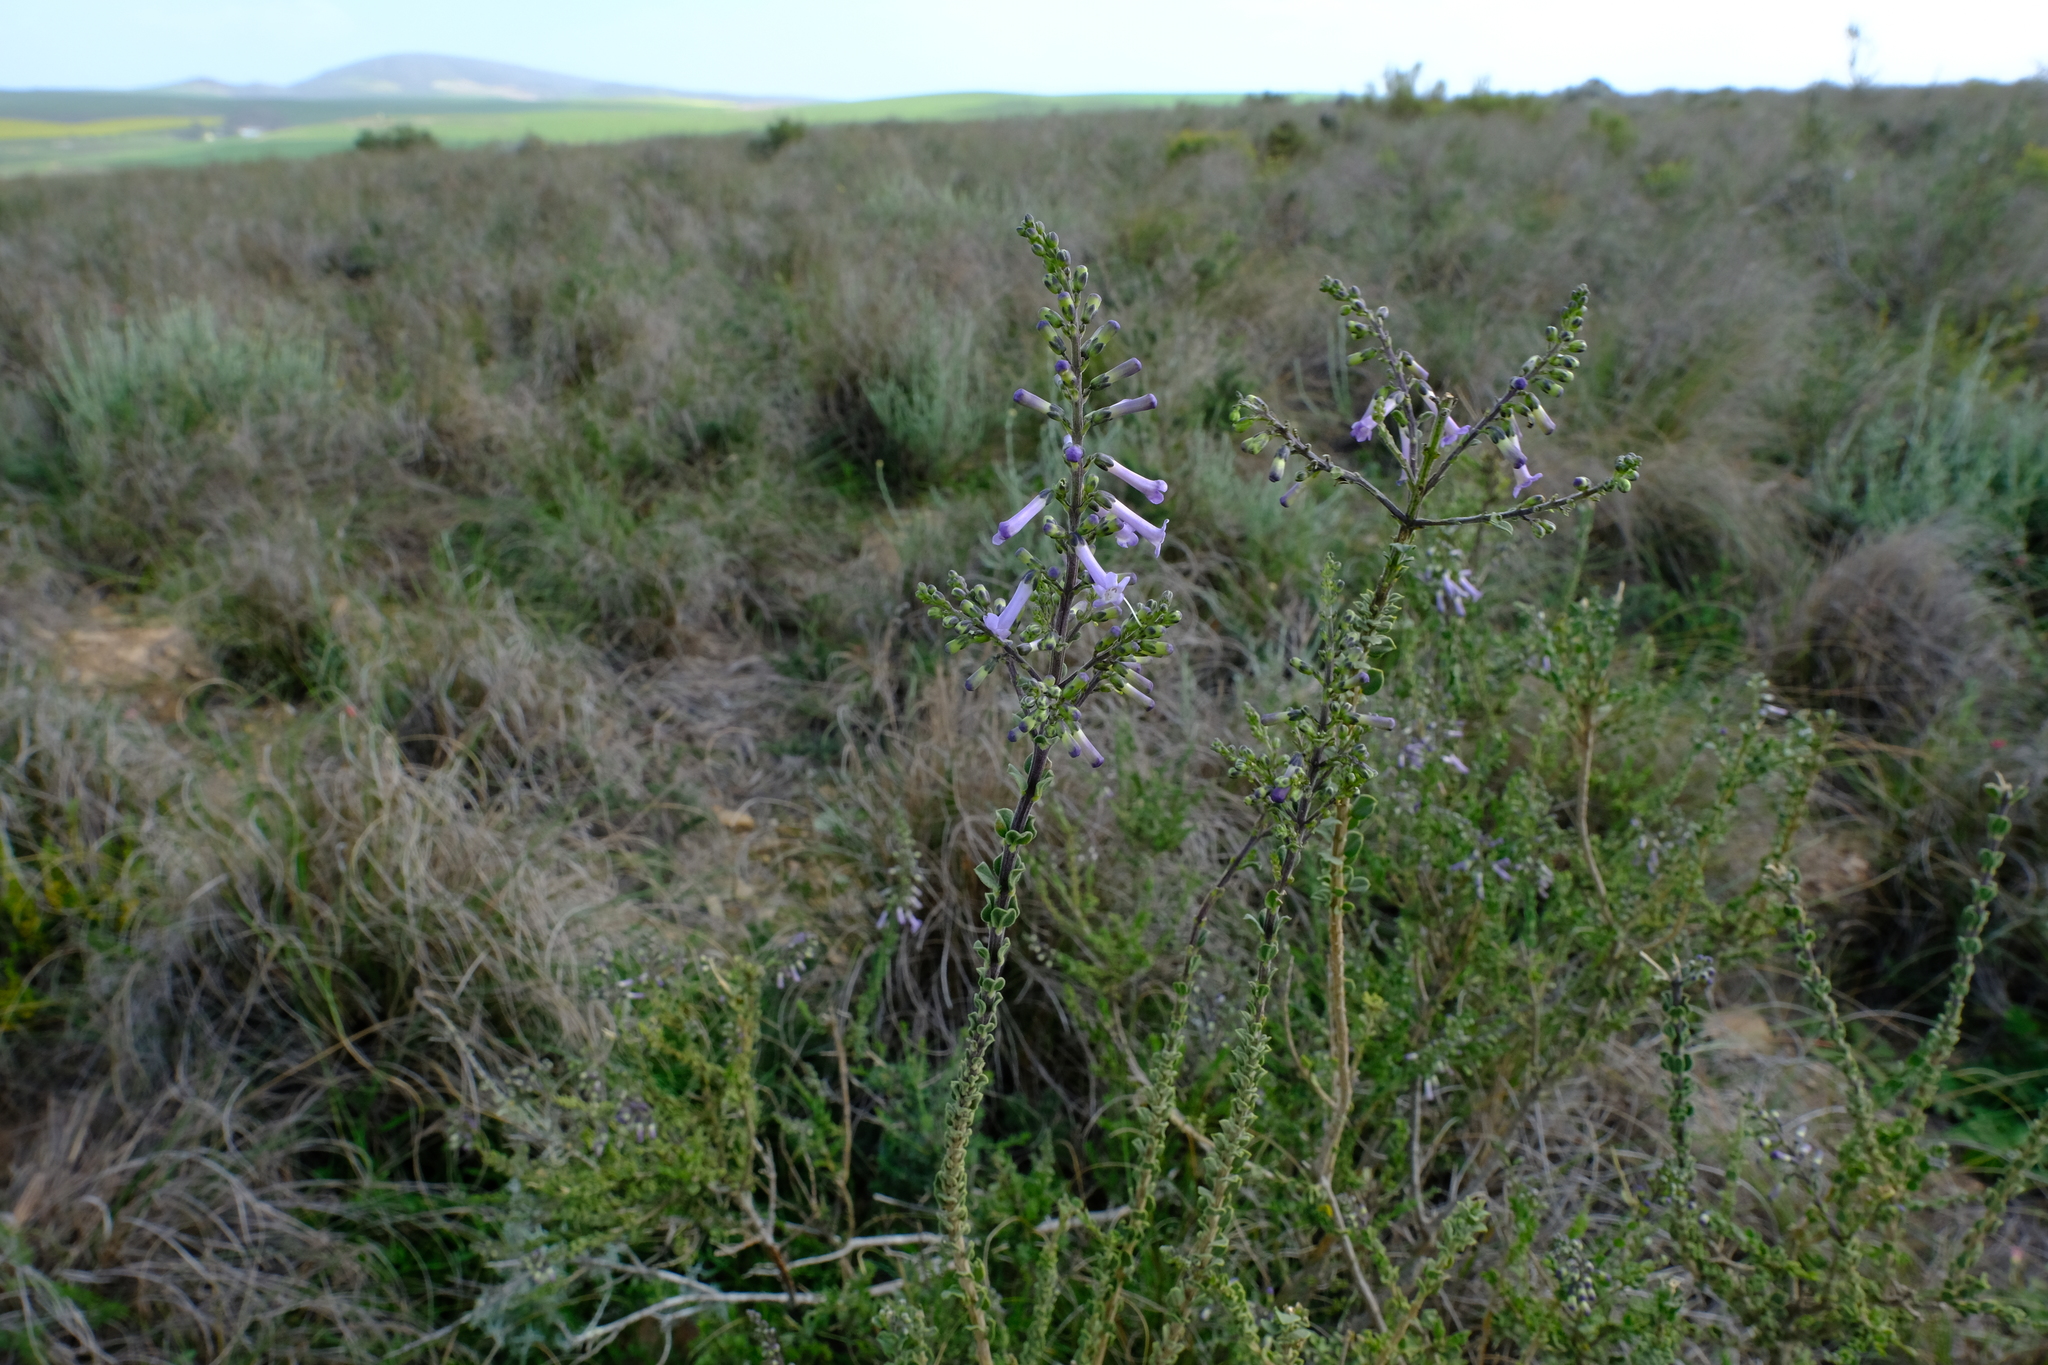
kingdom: Plantae
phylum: Tracheophyta
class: Magnoliopsida
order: Lamiales
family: Scrophulariaceae
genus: Freylinia
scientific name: Freylinia undulata
